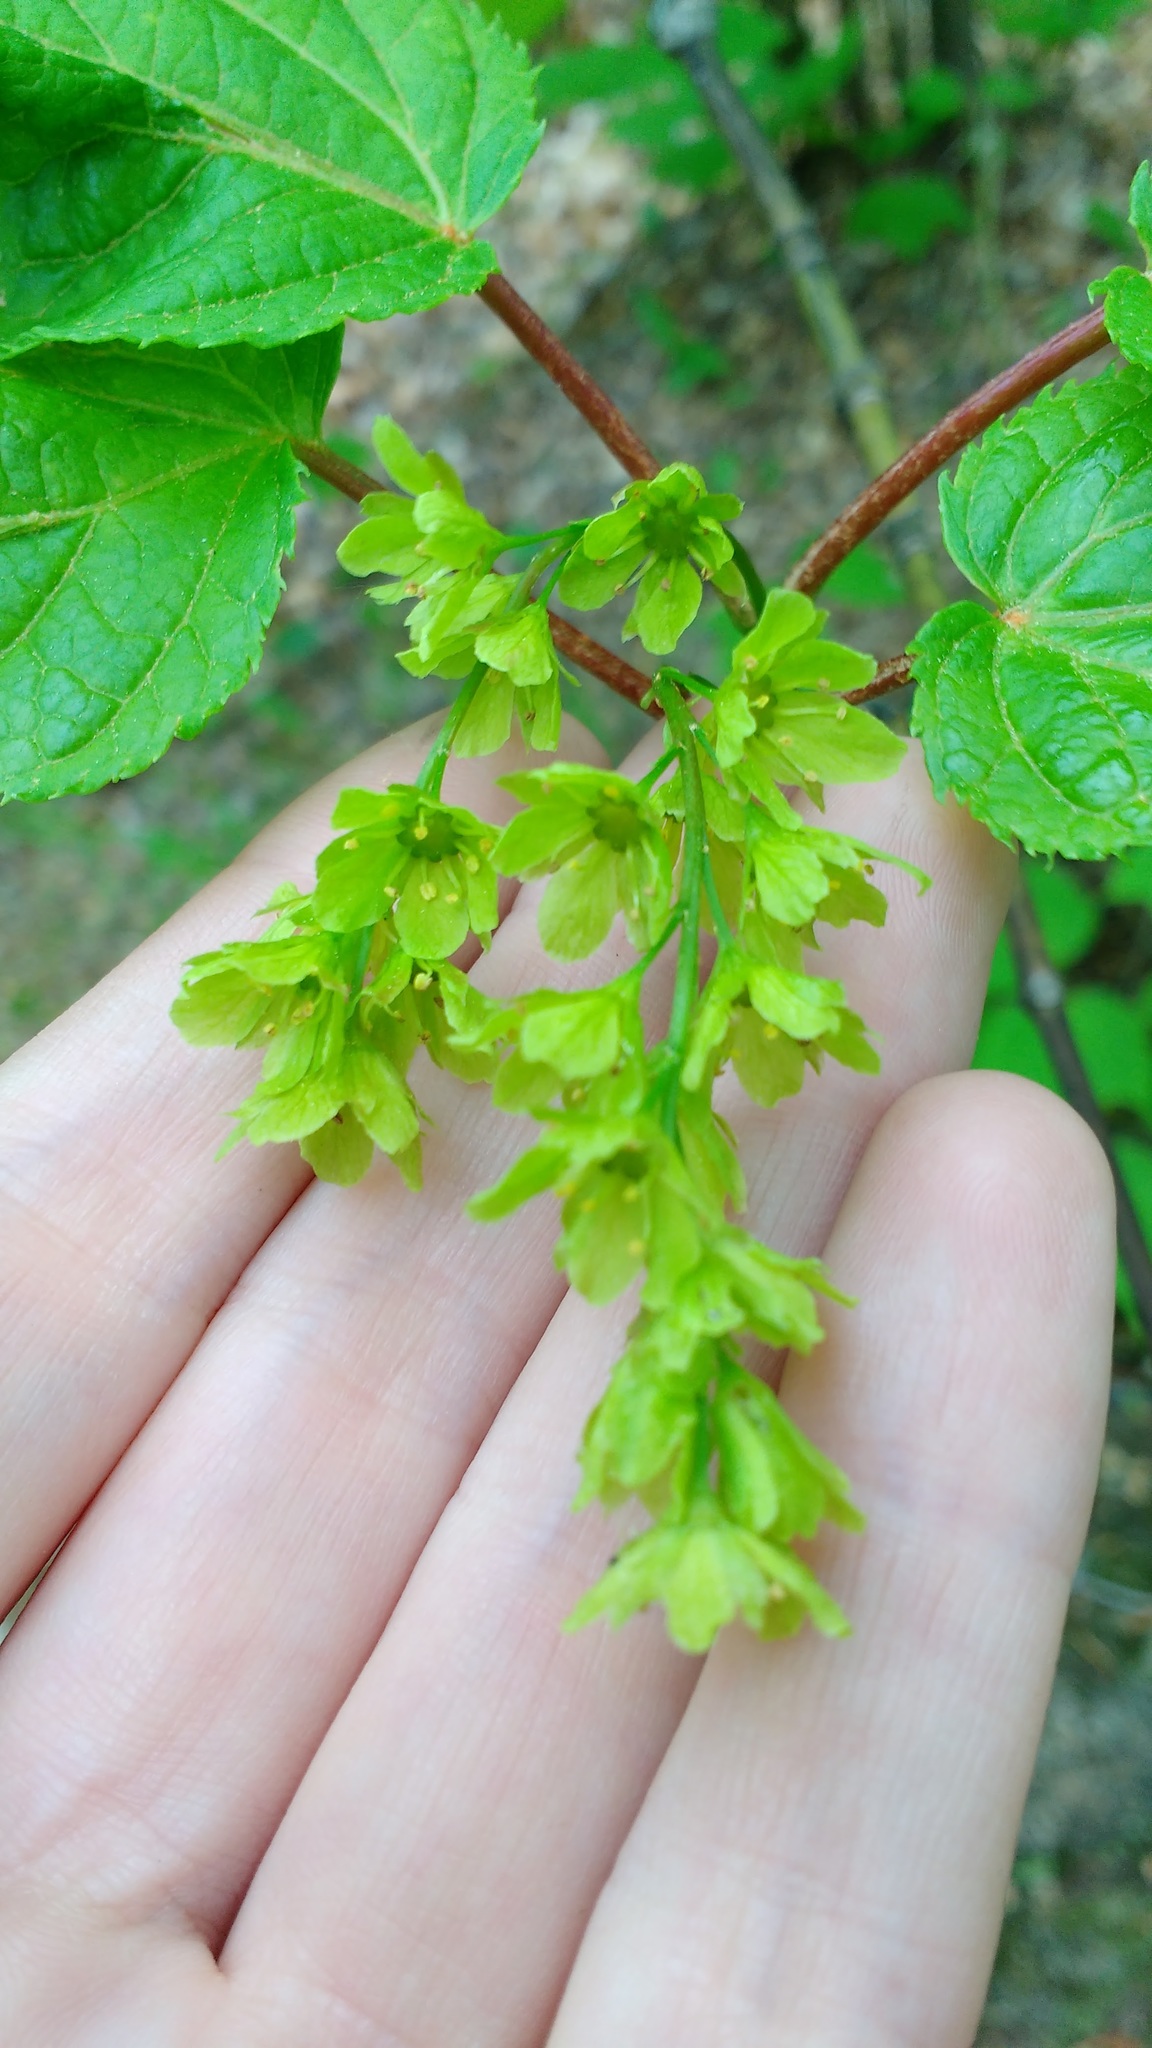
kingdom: Plantae
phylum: Tracheophyta
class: Magnoliopsida
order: Sapindales
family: Sapindaceae
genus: Acer
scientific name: Acer pensylvanicum
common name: Moosewood
